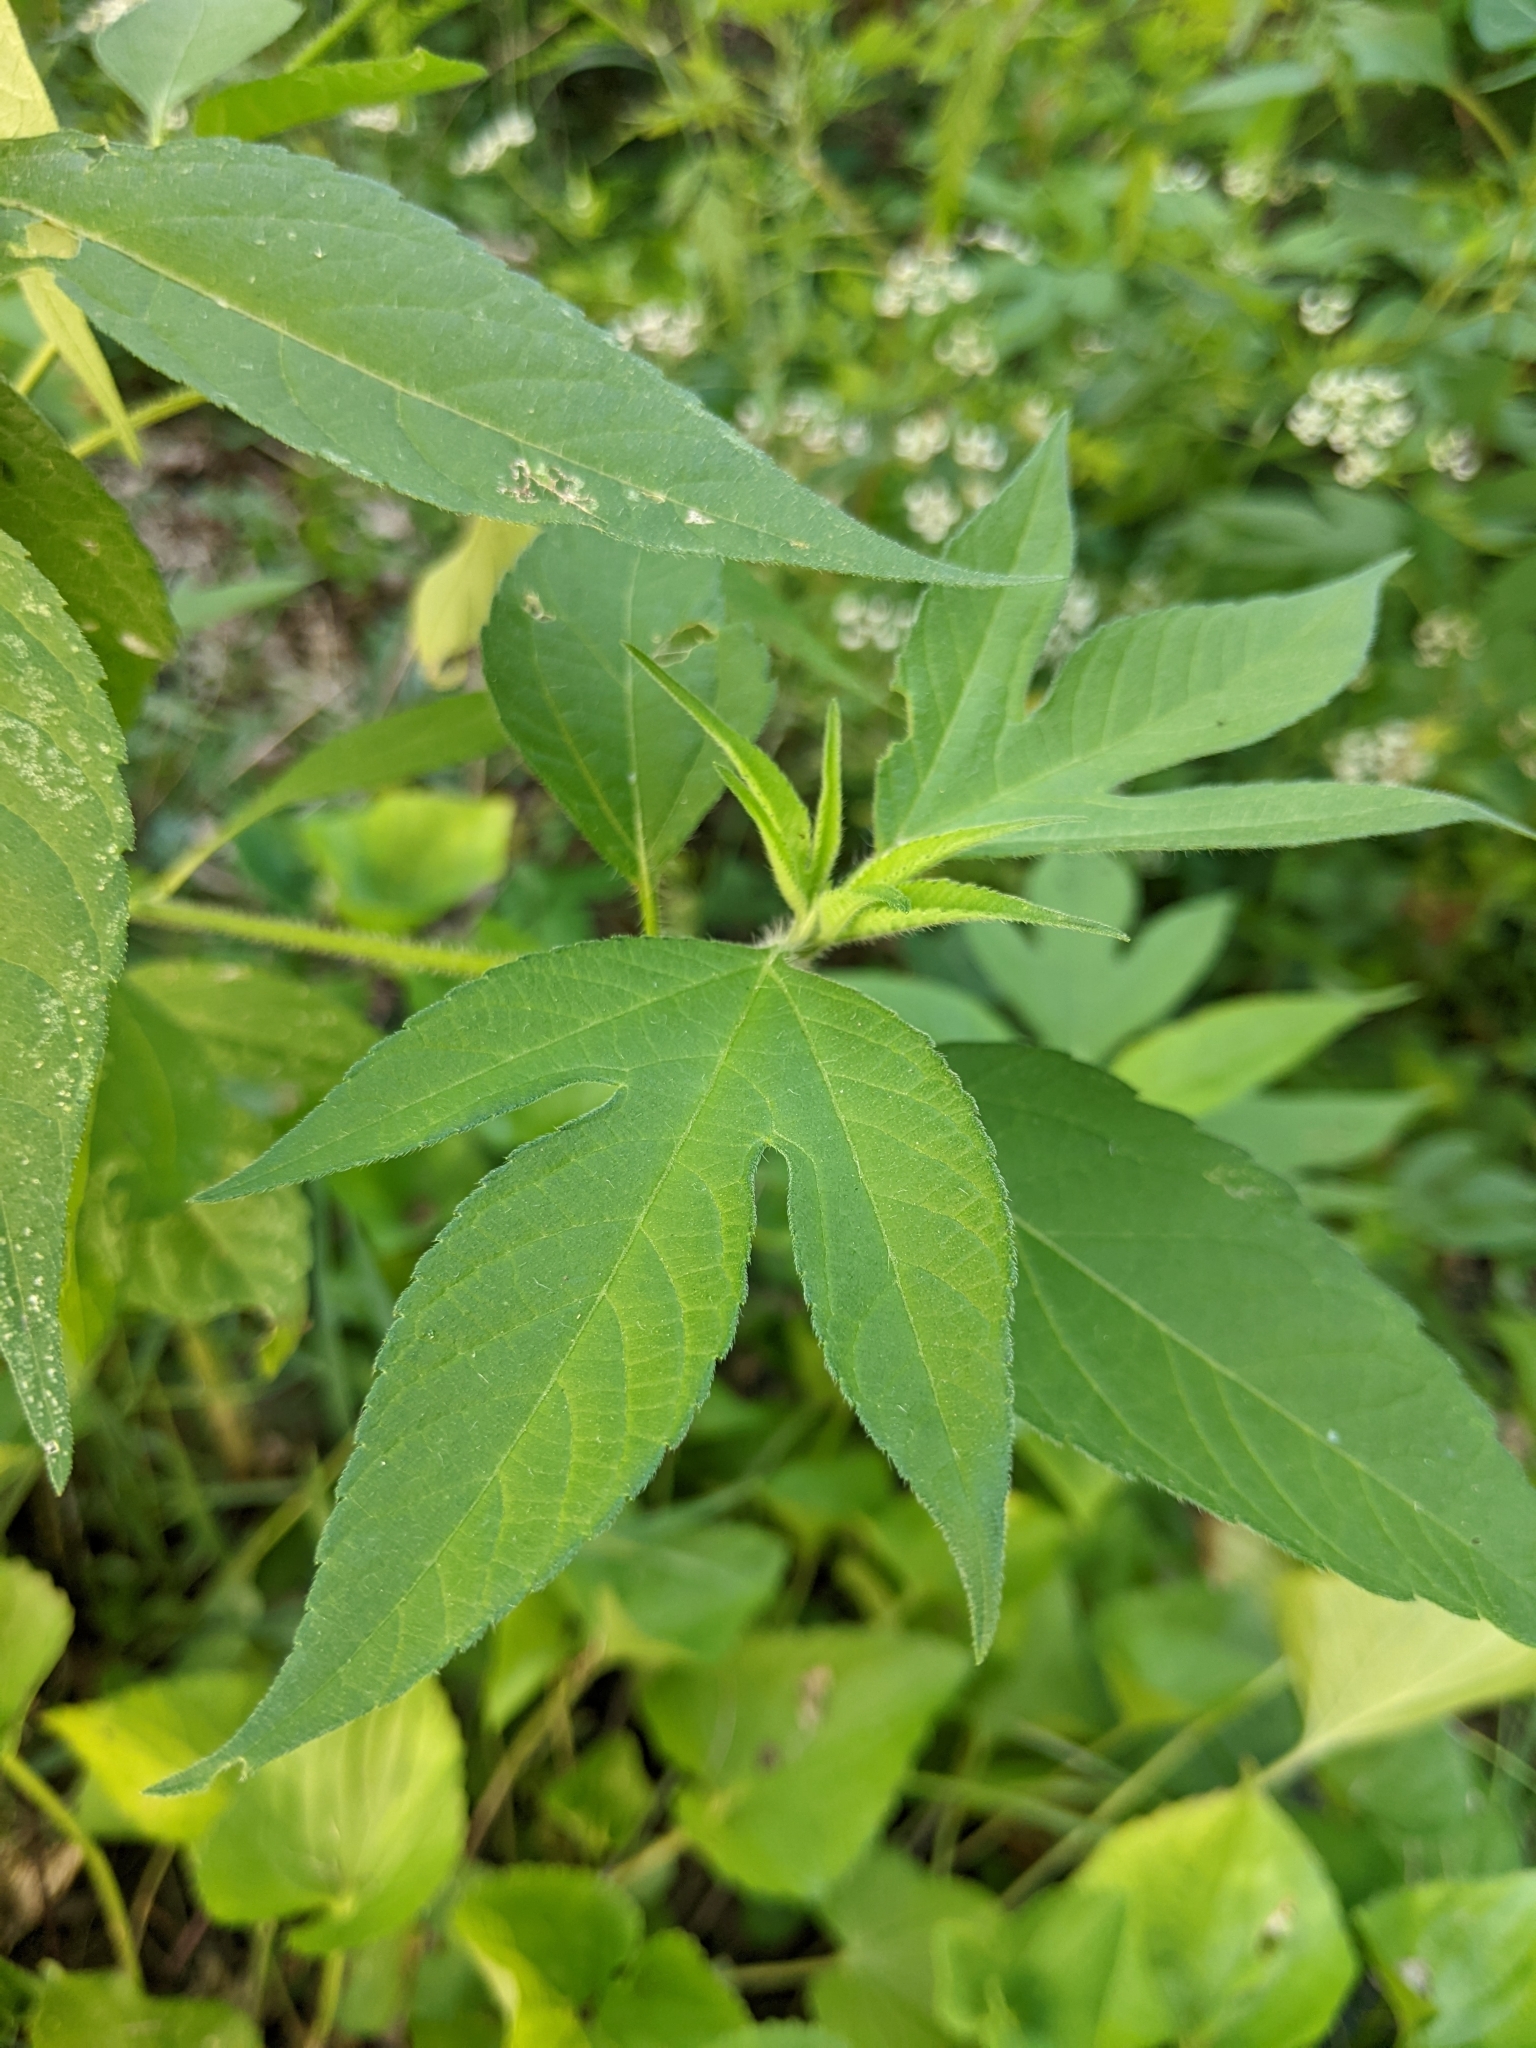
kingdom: Plantae
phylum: Tracheophyta
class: Magnoliopsida
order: Asterales
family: Asteraceae
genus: Ambrosia
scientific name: Ambrosia trifida
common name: Giant ragweed
